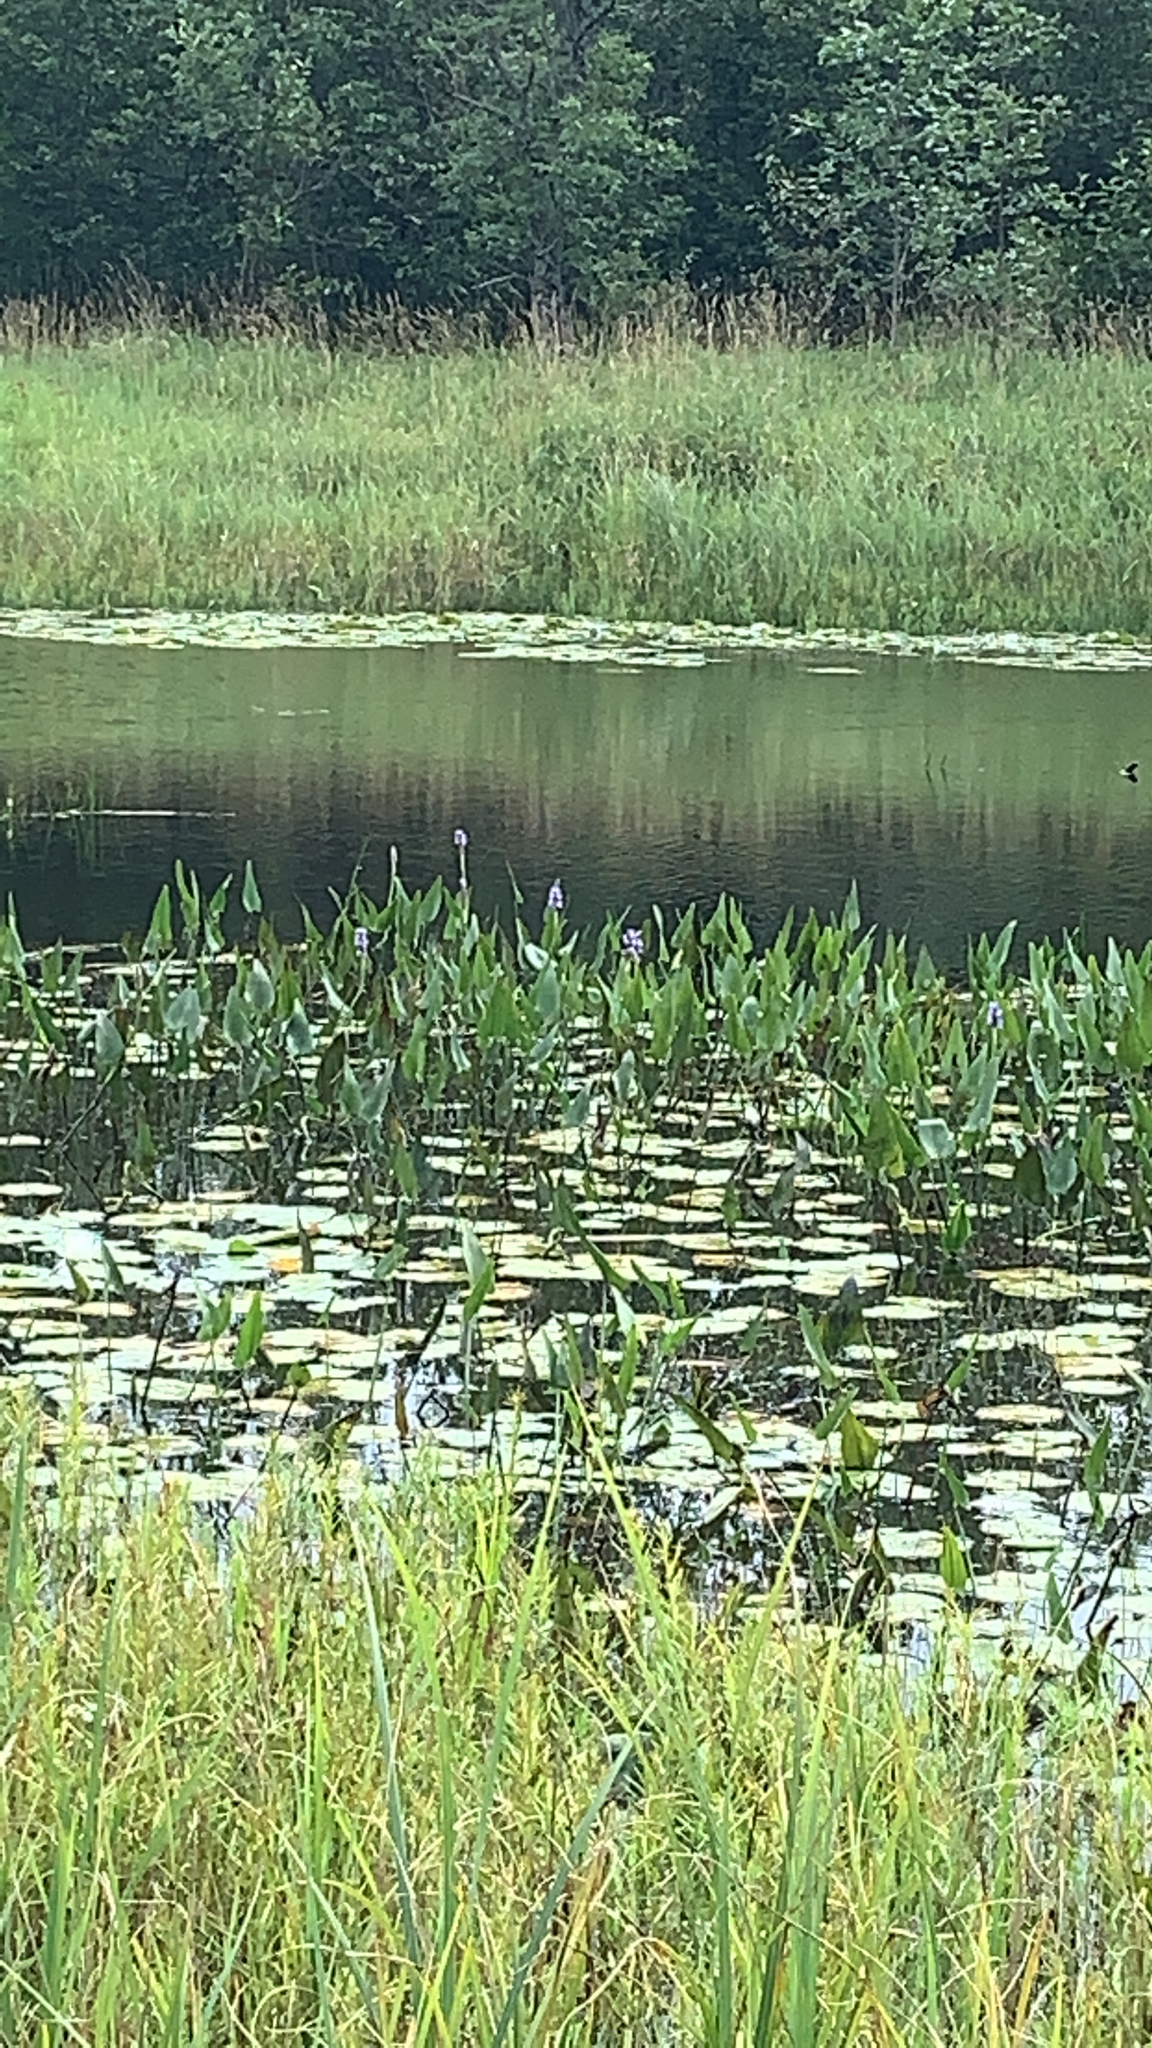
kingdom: Plantae
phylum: Tracheophyta
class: Liliopsida
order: Commelinales
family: Pontederiaceae
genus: Pontederia
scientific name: Pontederia cordata
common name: Pickerelweed
